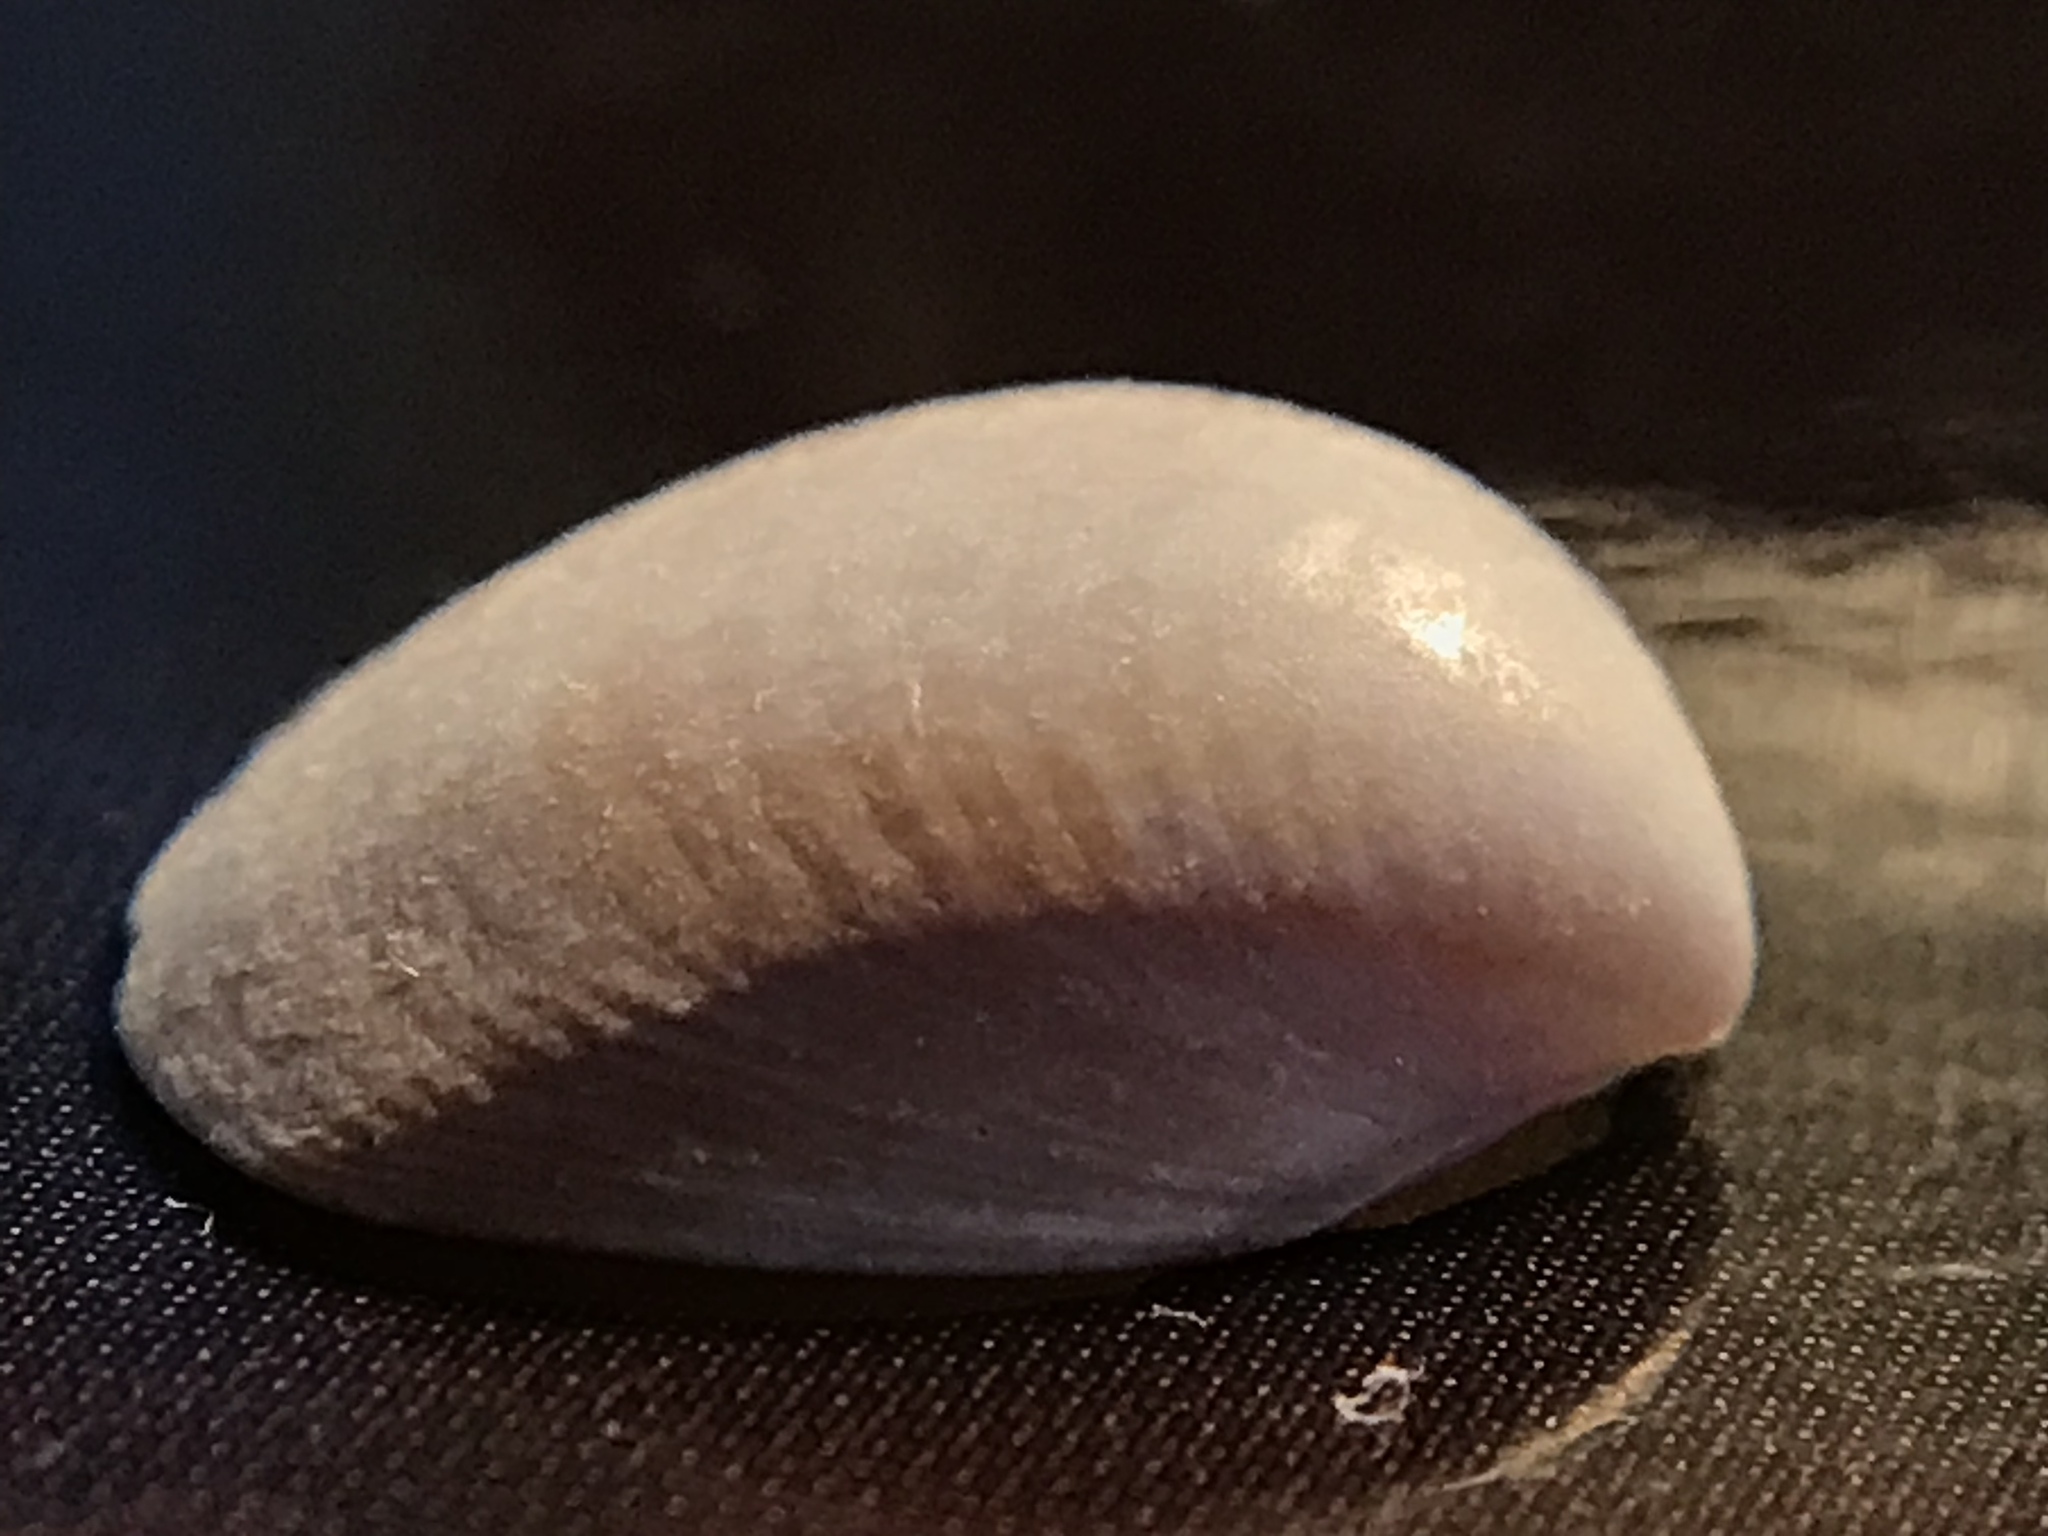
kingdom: Animalia
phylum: Mollusca
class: Bivalvia
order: Cardiida
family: Cardiidae
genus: Laevicardium
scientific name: Laevicardium mortoni
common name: Morton eggcockle
